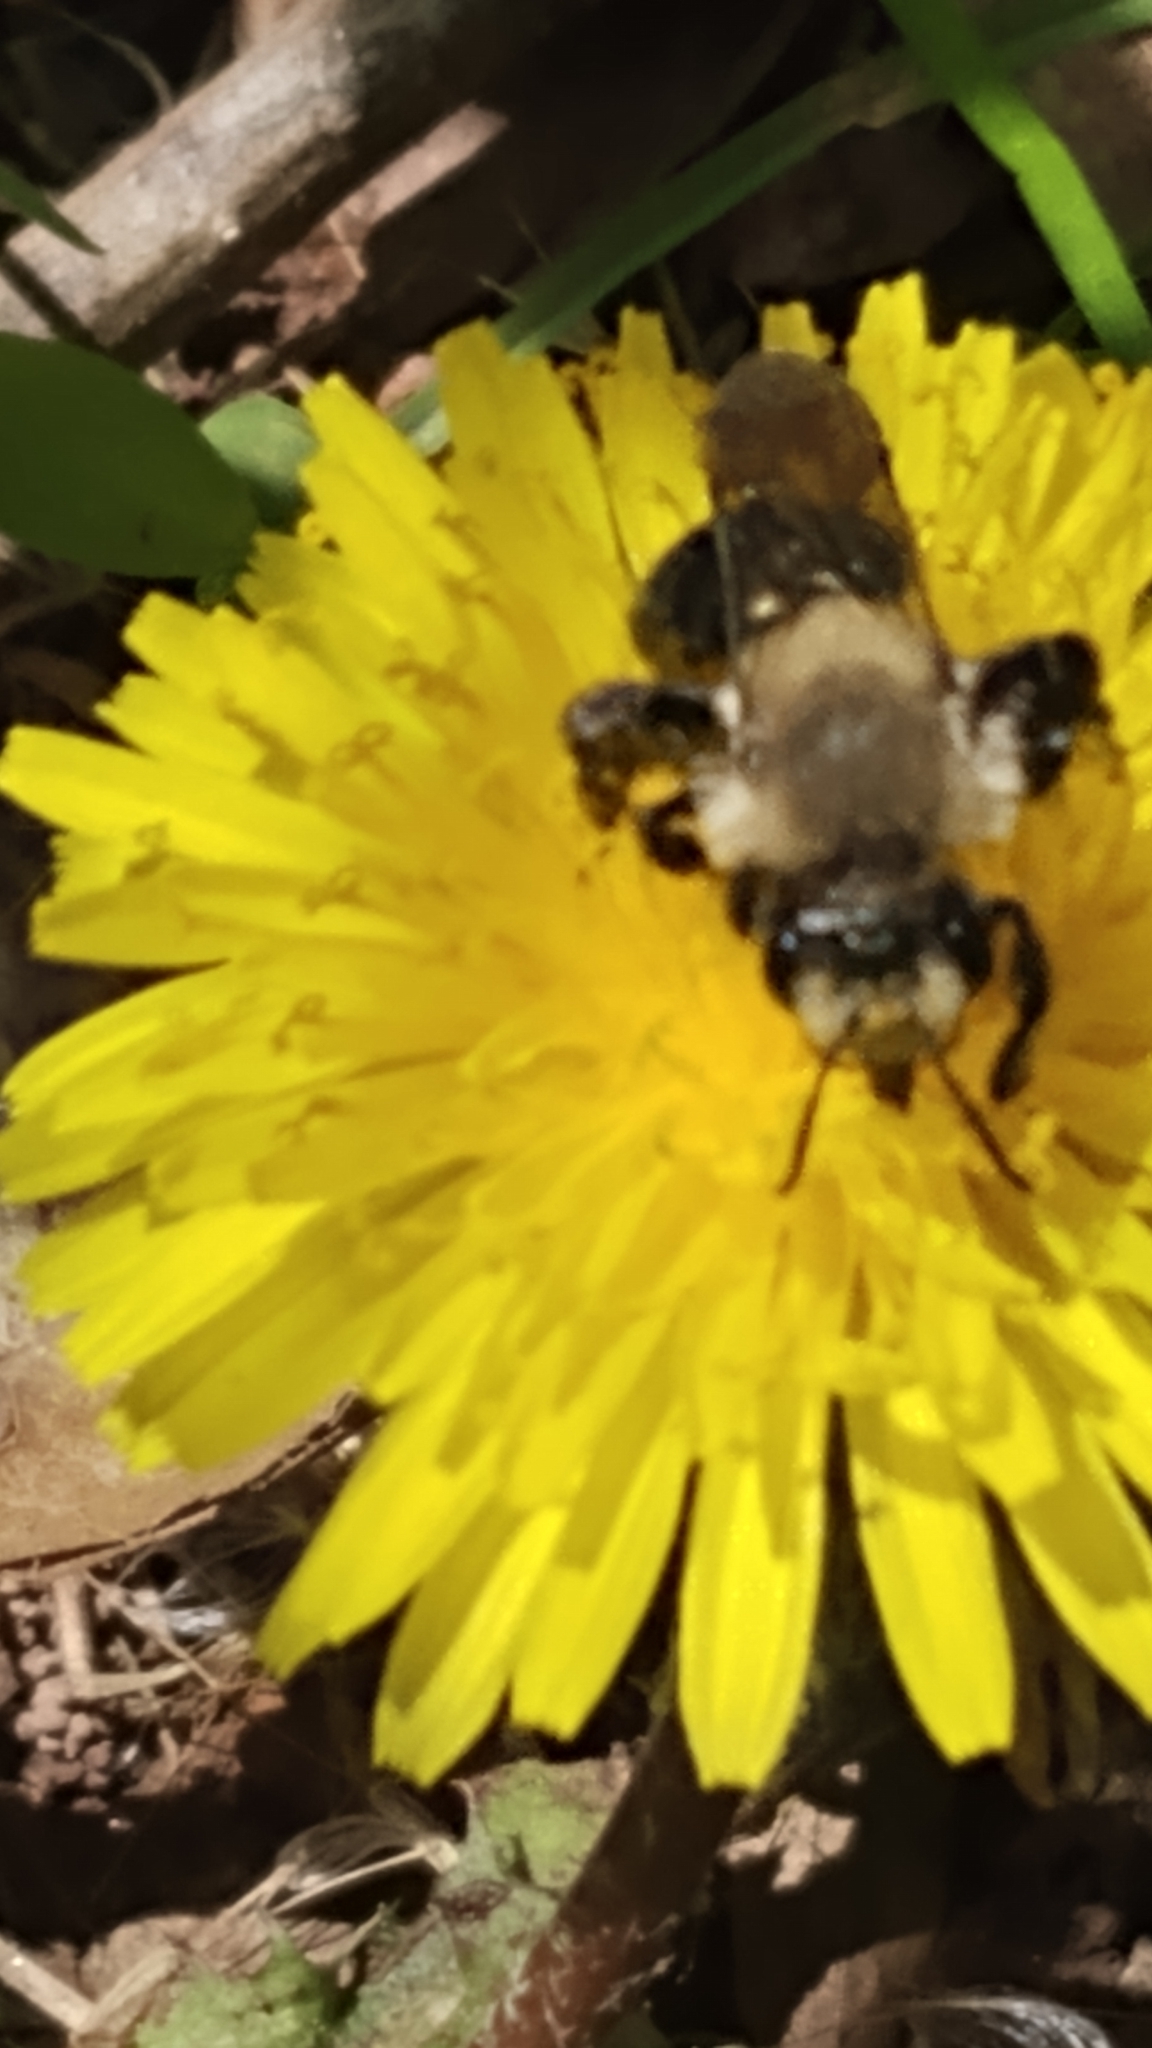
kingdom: Animalia
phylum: Arthropoda
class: Insecta
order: Hymenoptera
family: Andrenidae
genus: Andrena
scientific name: Andrena carlini
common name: Carlin's mining bee
